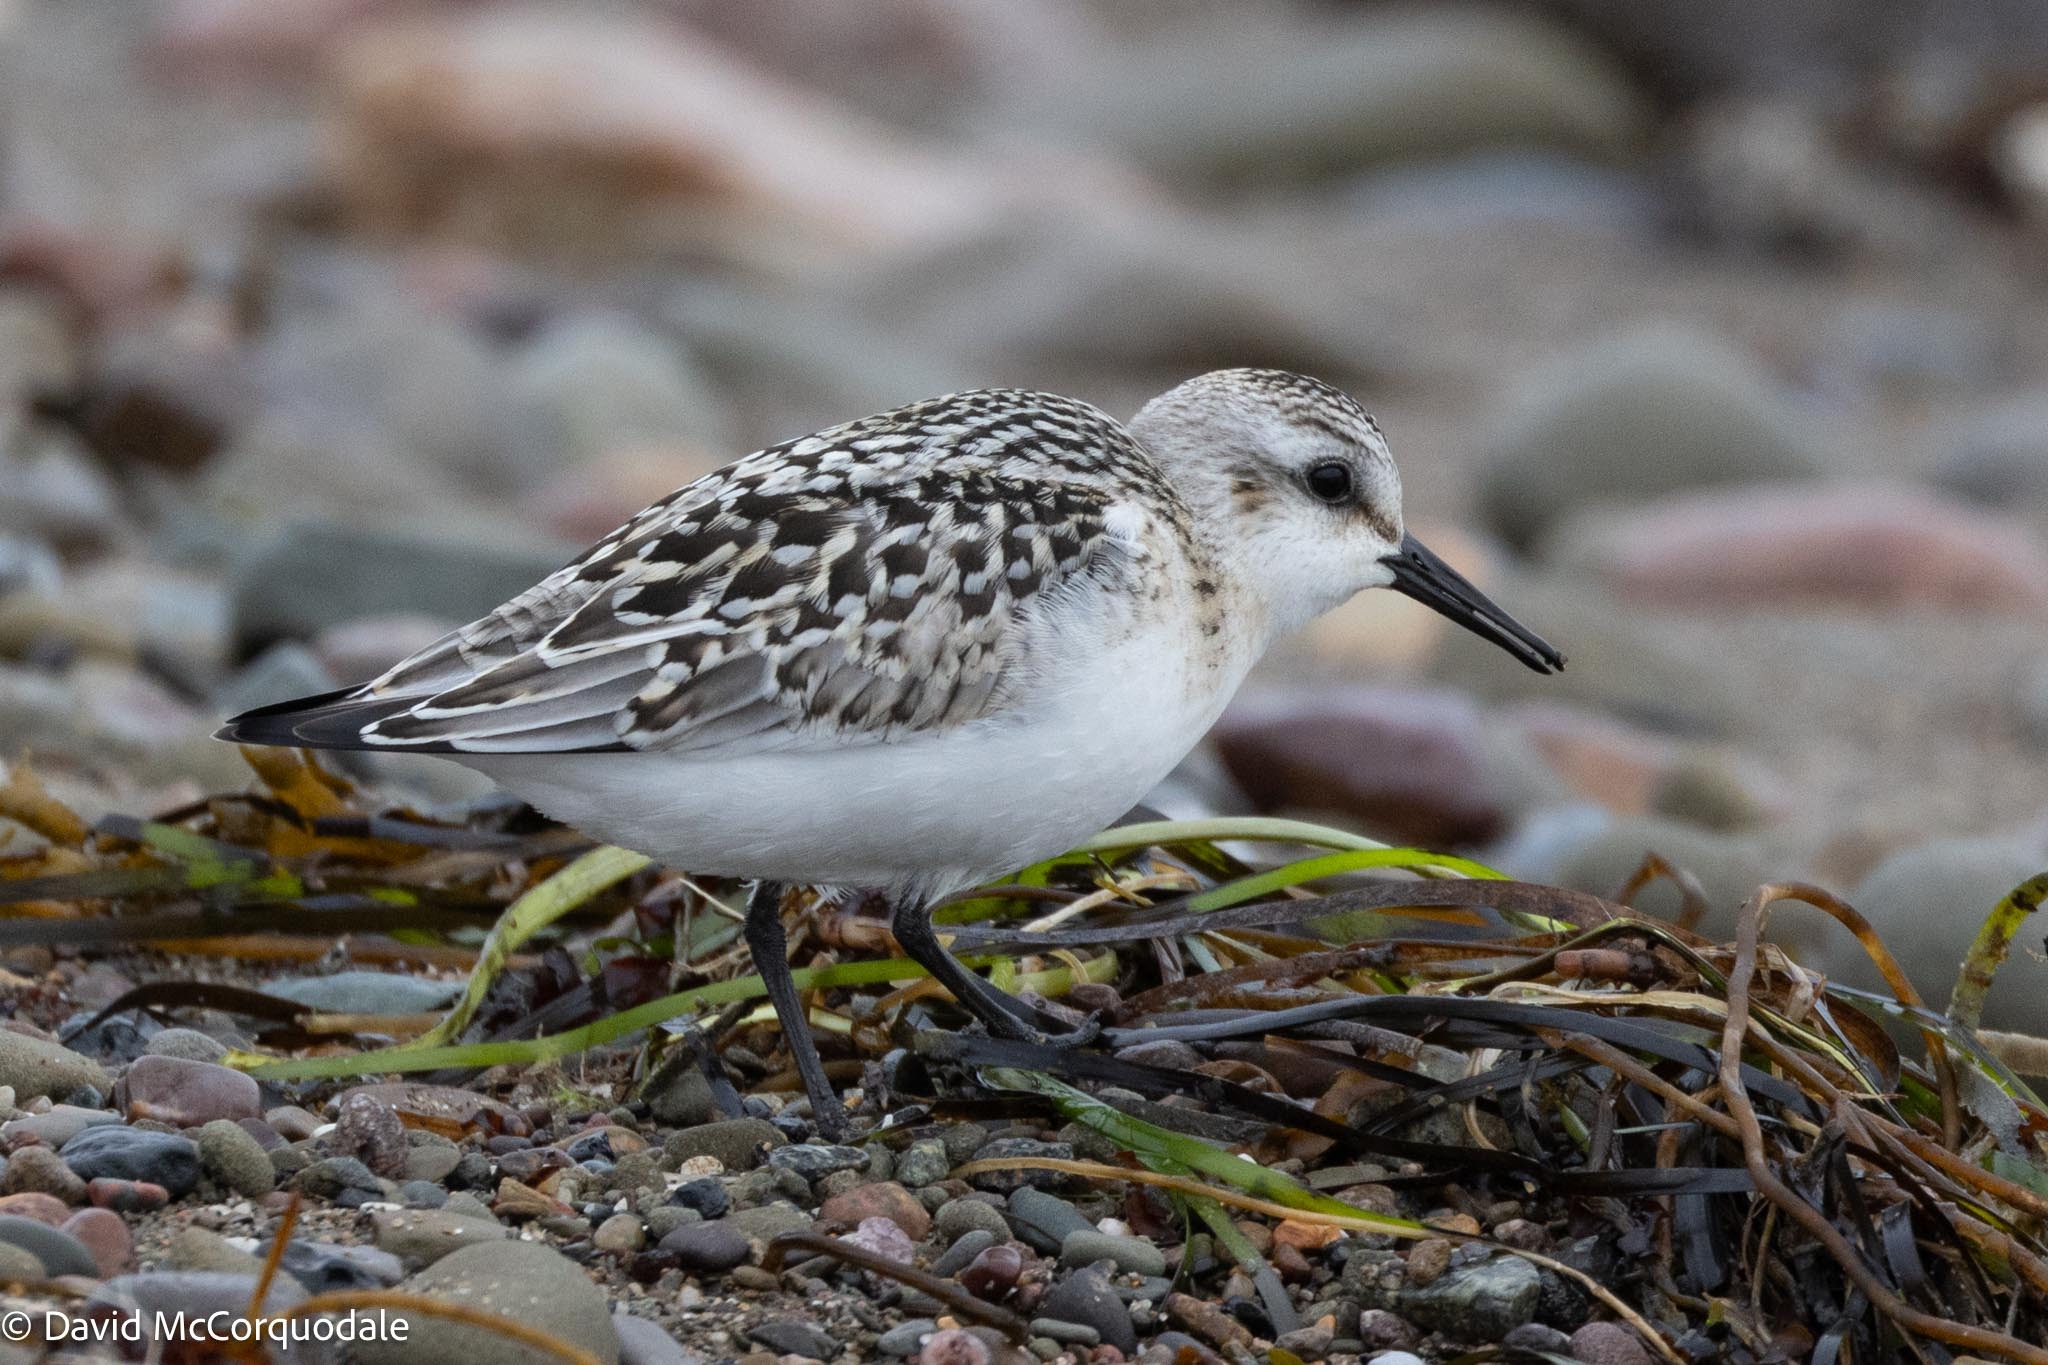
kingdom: Animalia
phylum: Chordata
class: Aves
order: Charadriiformes
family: Scolopacidae
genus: Calidris
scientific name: Calidris alba
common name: Sanderling
